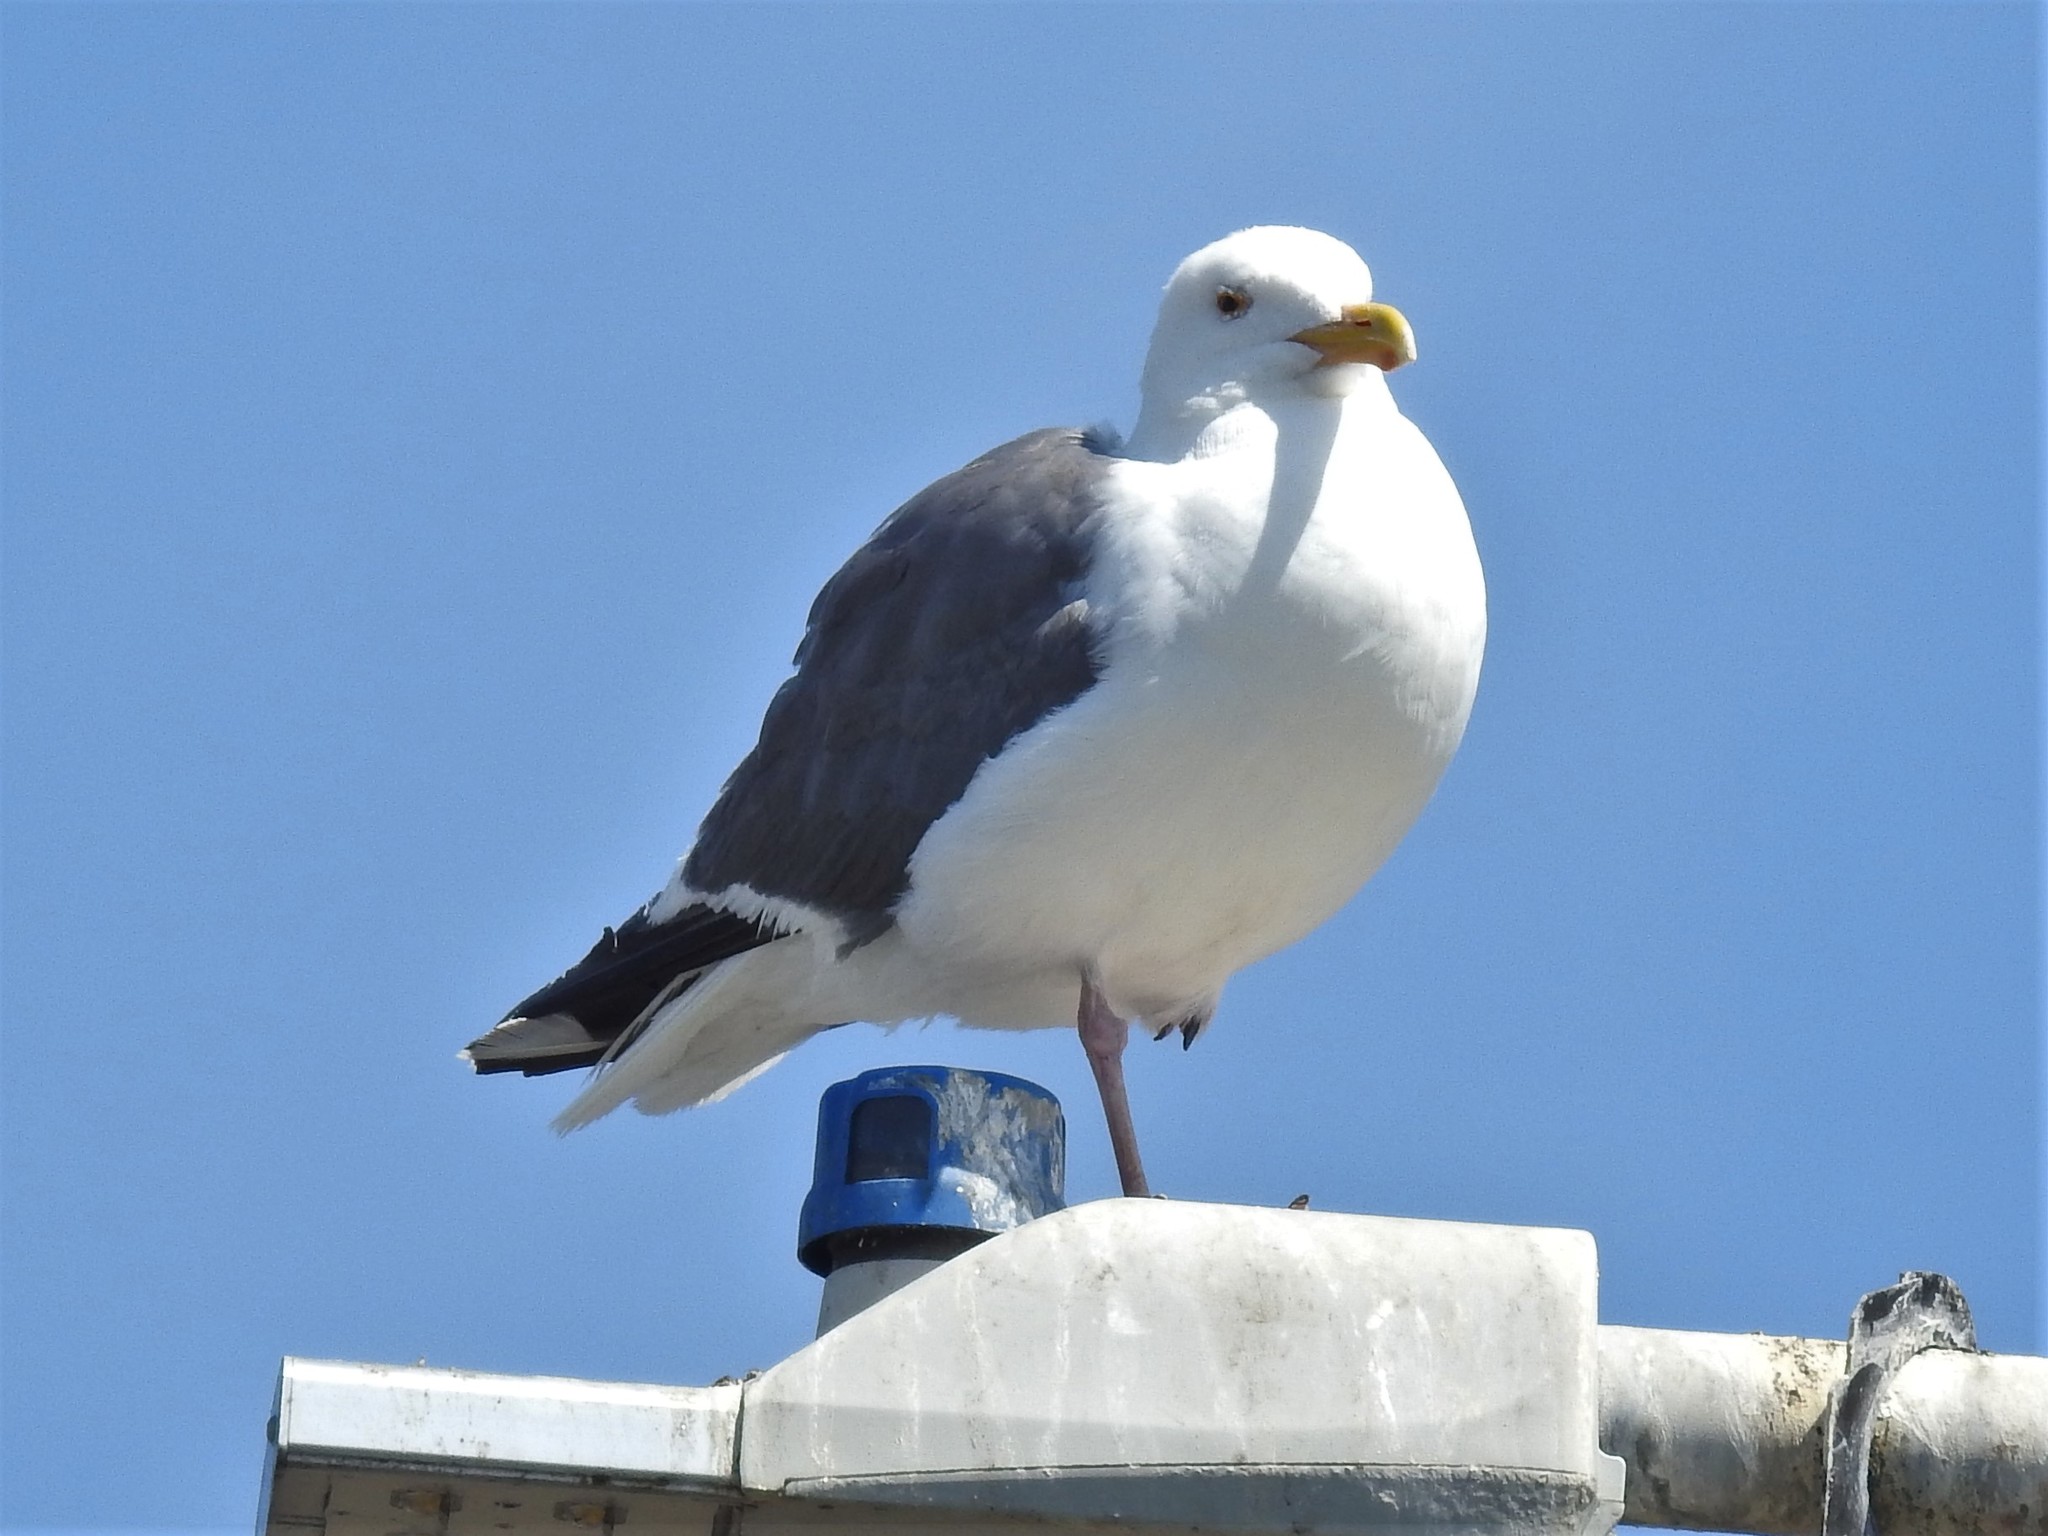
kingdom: Animalia
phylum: Chordata
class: Aves
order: Charadriiformes
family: Laridae
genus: Larus
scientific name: Larus occidentalis
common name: Western gull
